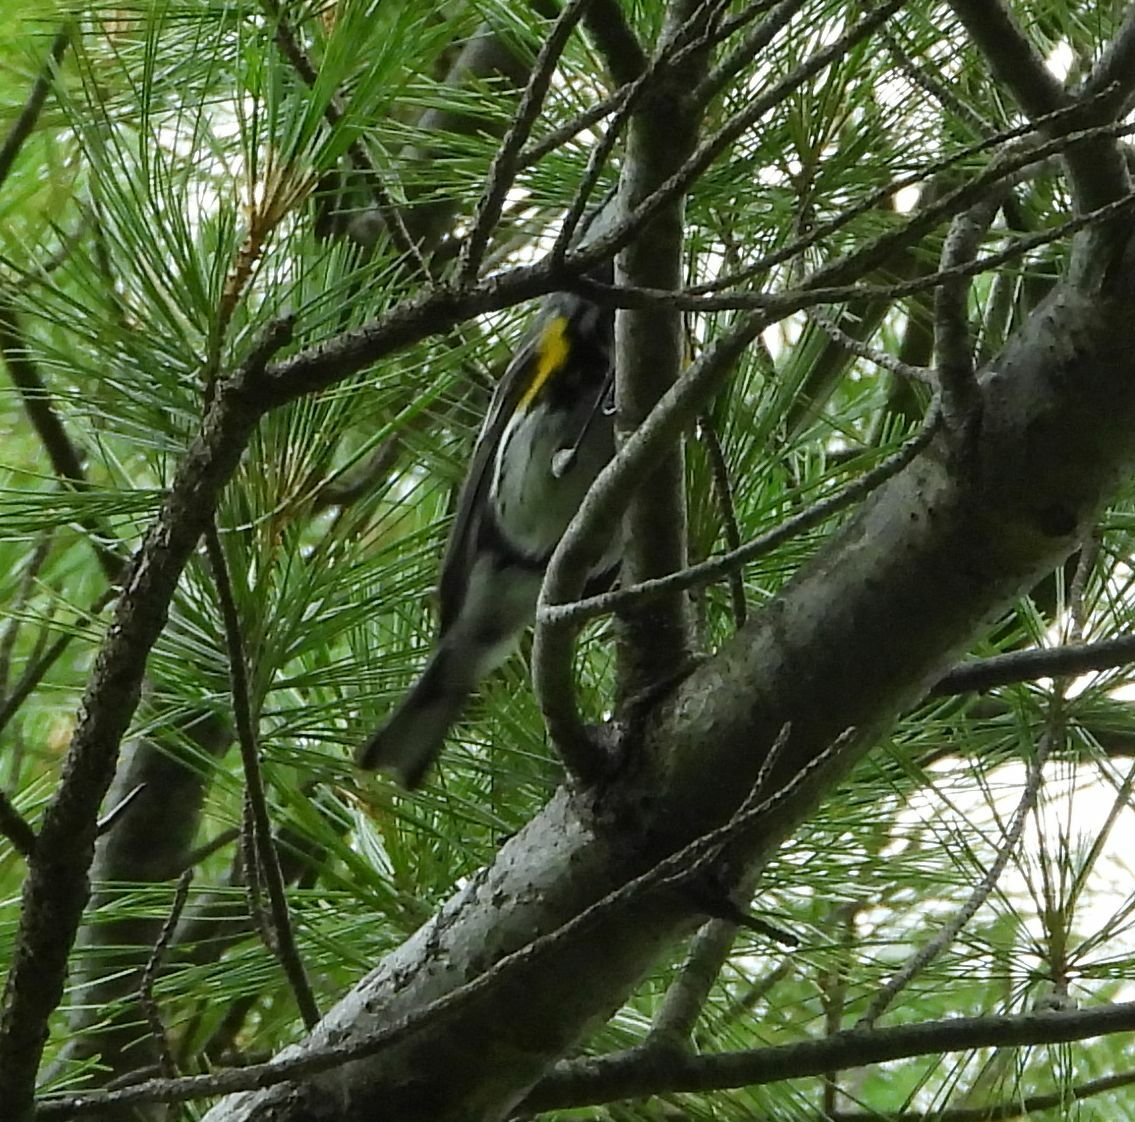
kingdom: Animalia
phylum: Chordata
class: Aves
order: Passeriformes
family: Parulidae
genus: Setophaga
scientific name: Setophaga coronata
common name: Myrtle warbler
